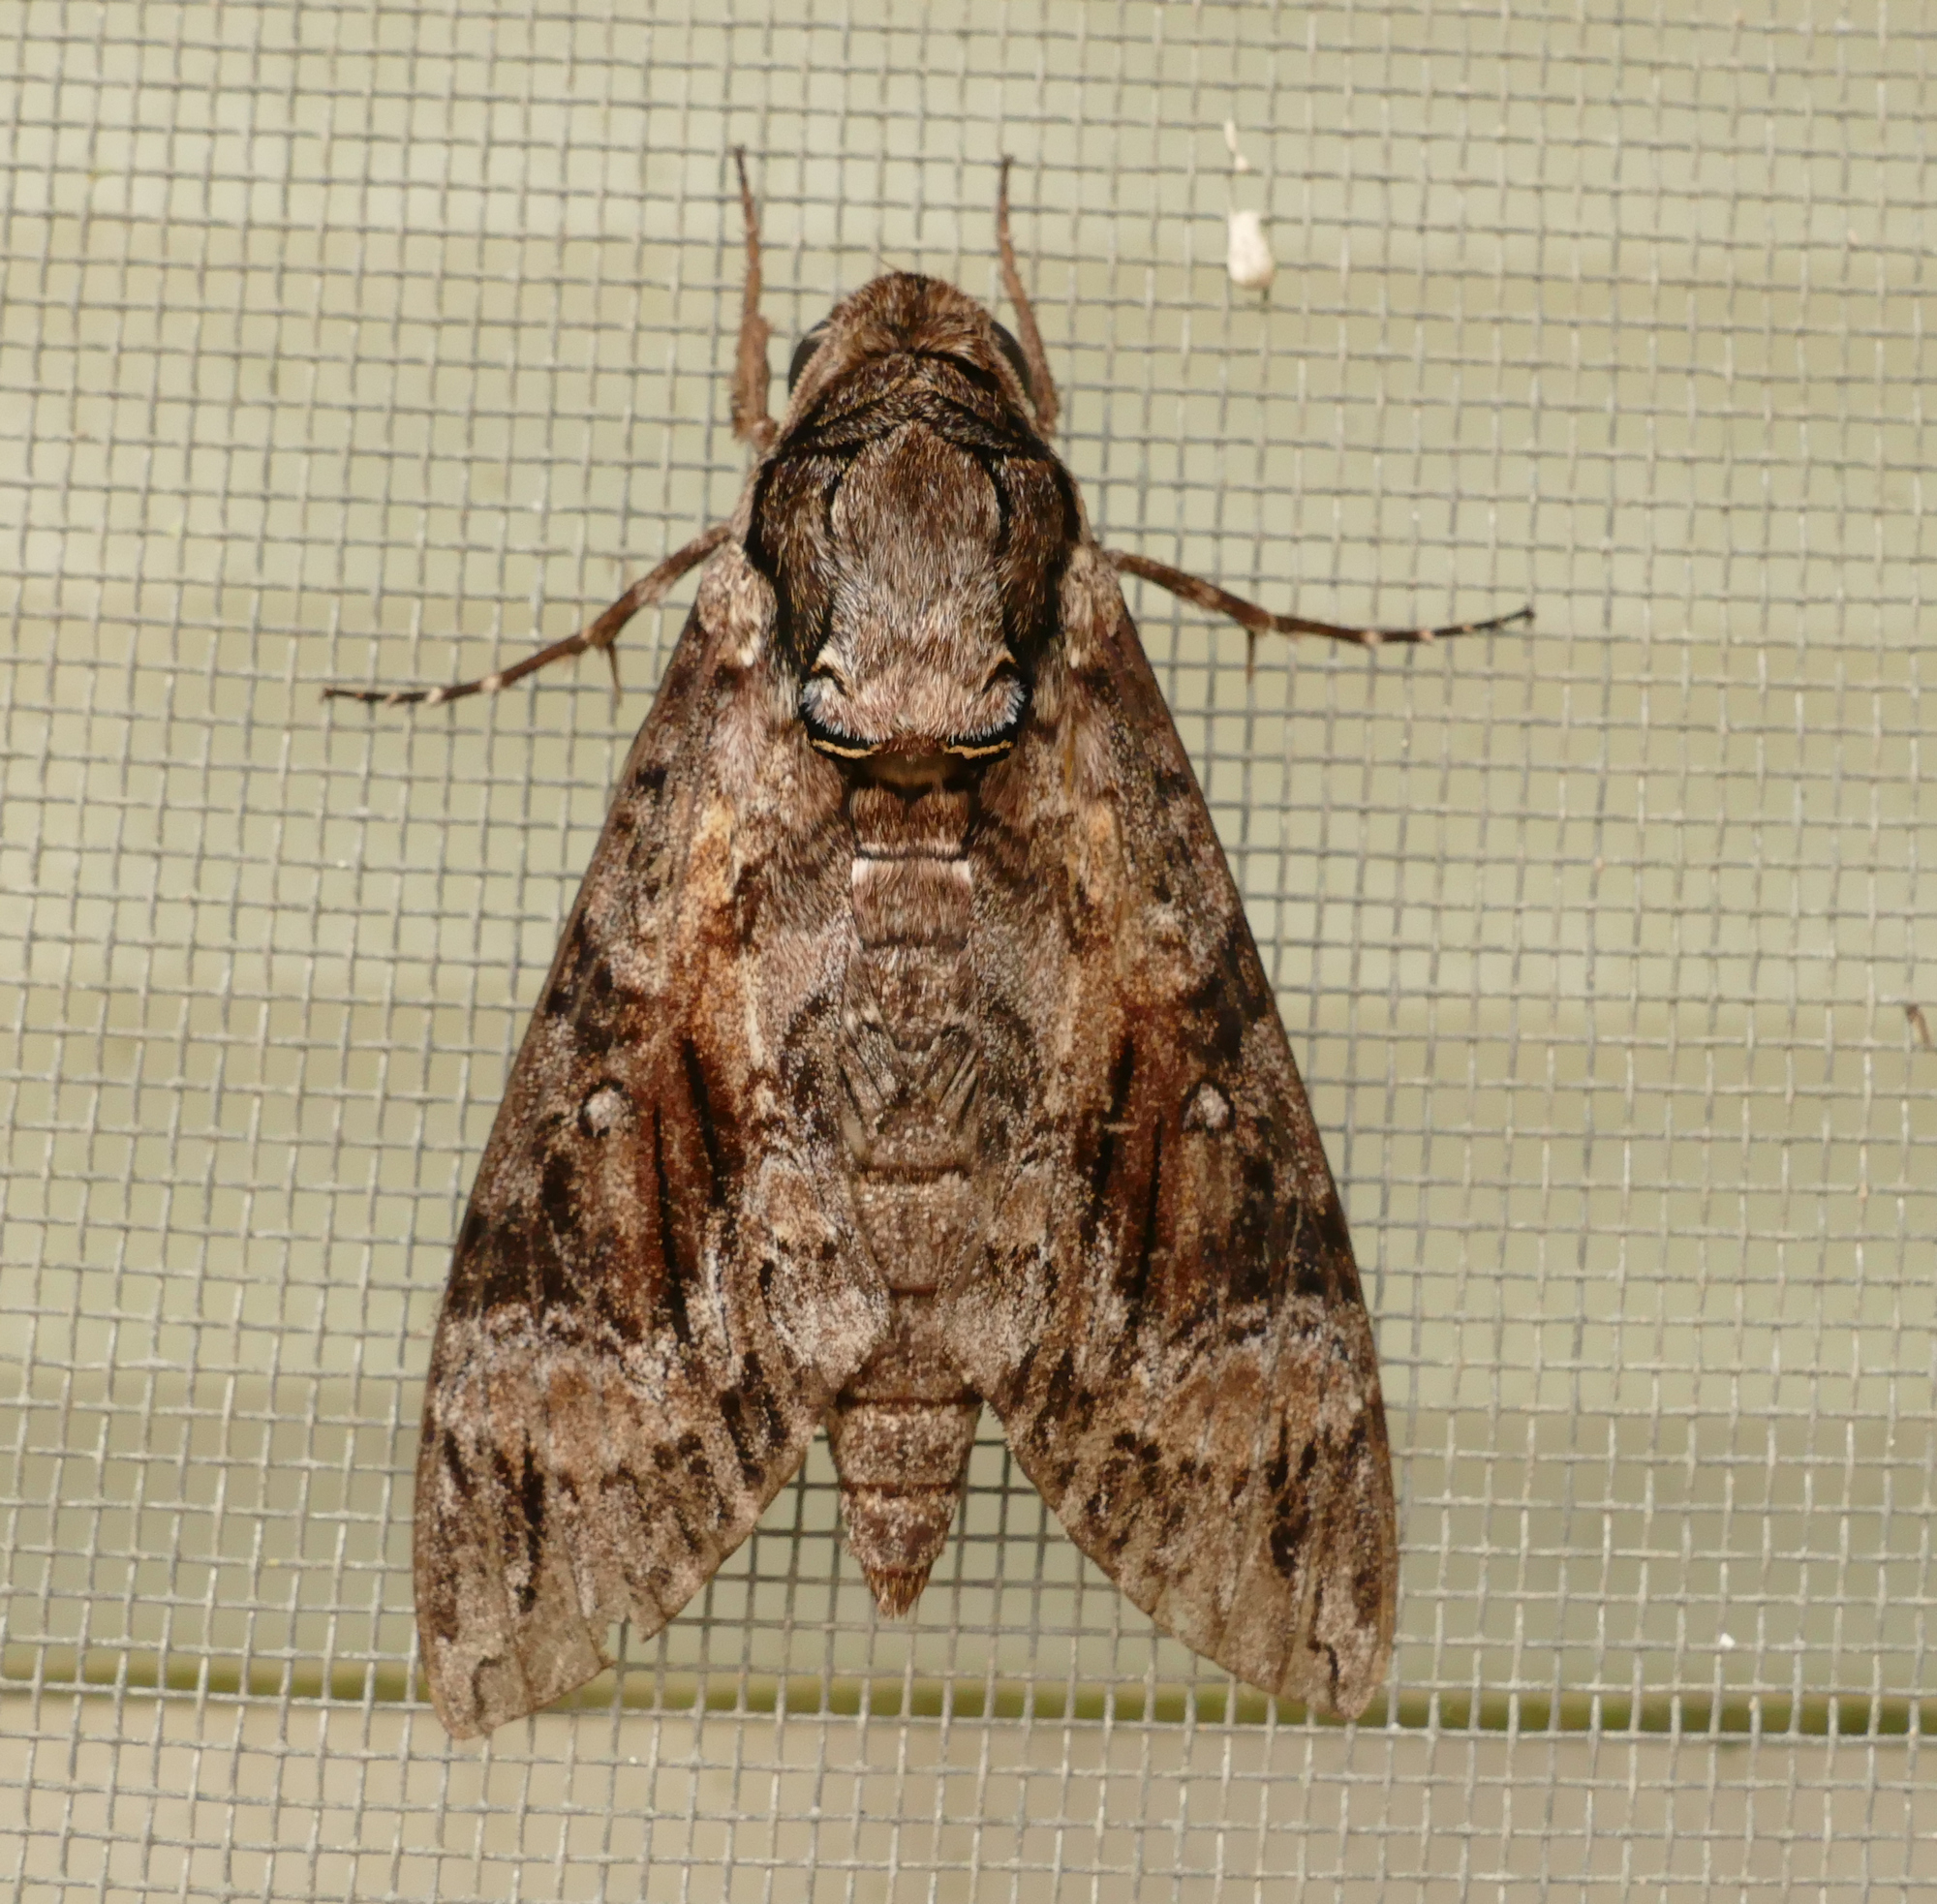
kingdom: Animalia
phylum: Arthropoda
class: Insecta
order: Lepidoptera
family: Sphingidae
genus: Agrius
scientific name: Agrius cingulata
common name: Pink-spotted hawkmoth
